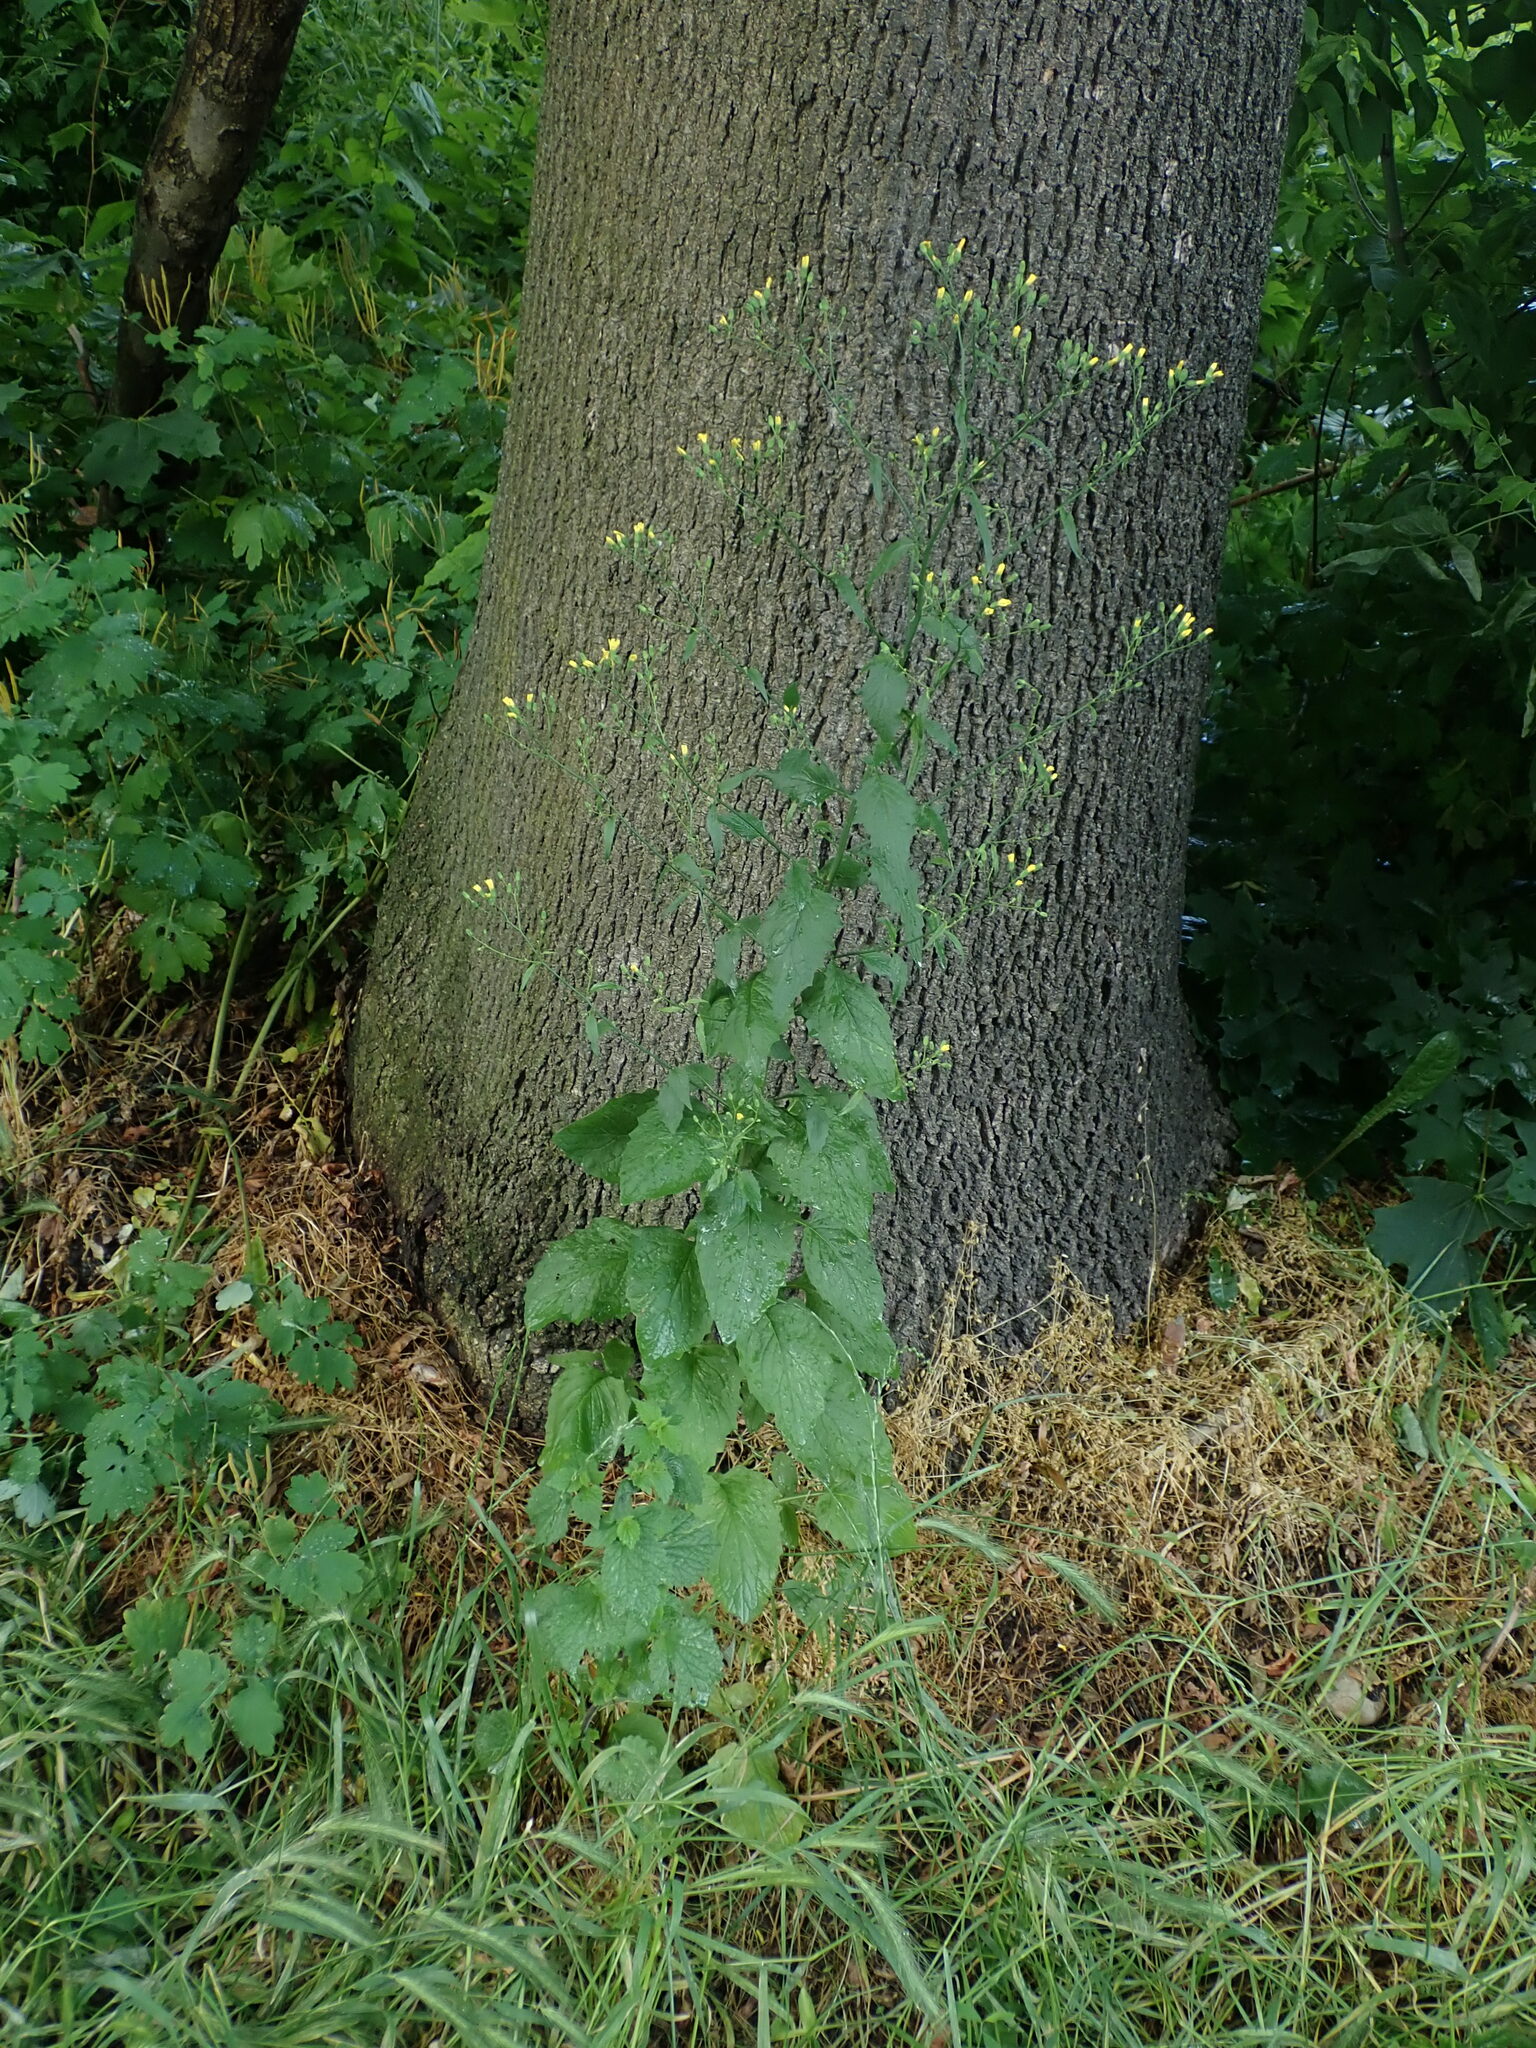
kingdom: Plantae
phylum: Tracheophyta
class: Magnoliopsida
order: Asterales
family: Asteraceae
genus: Lapsana
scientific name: Lapsana communis
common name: Nipplewort
